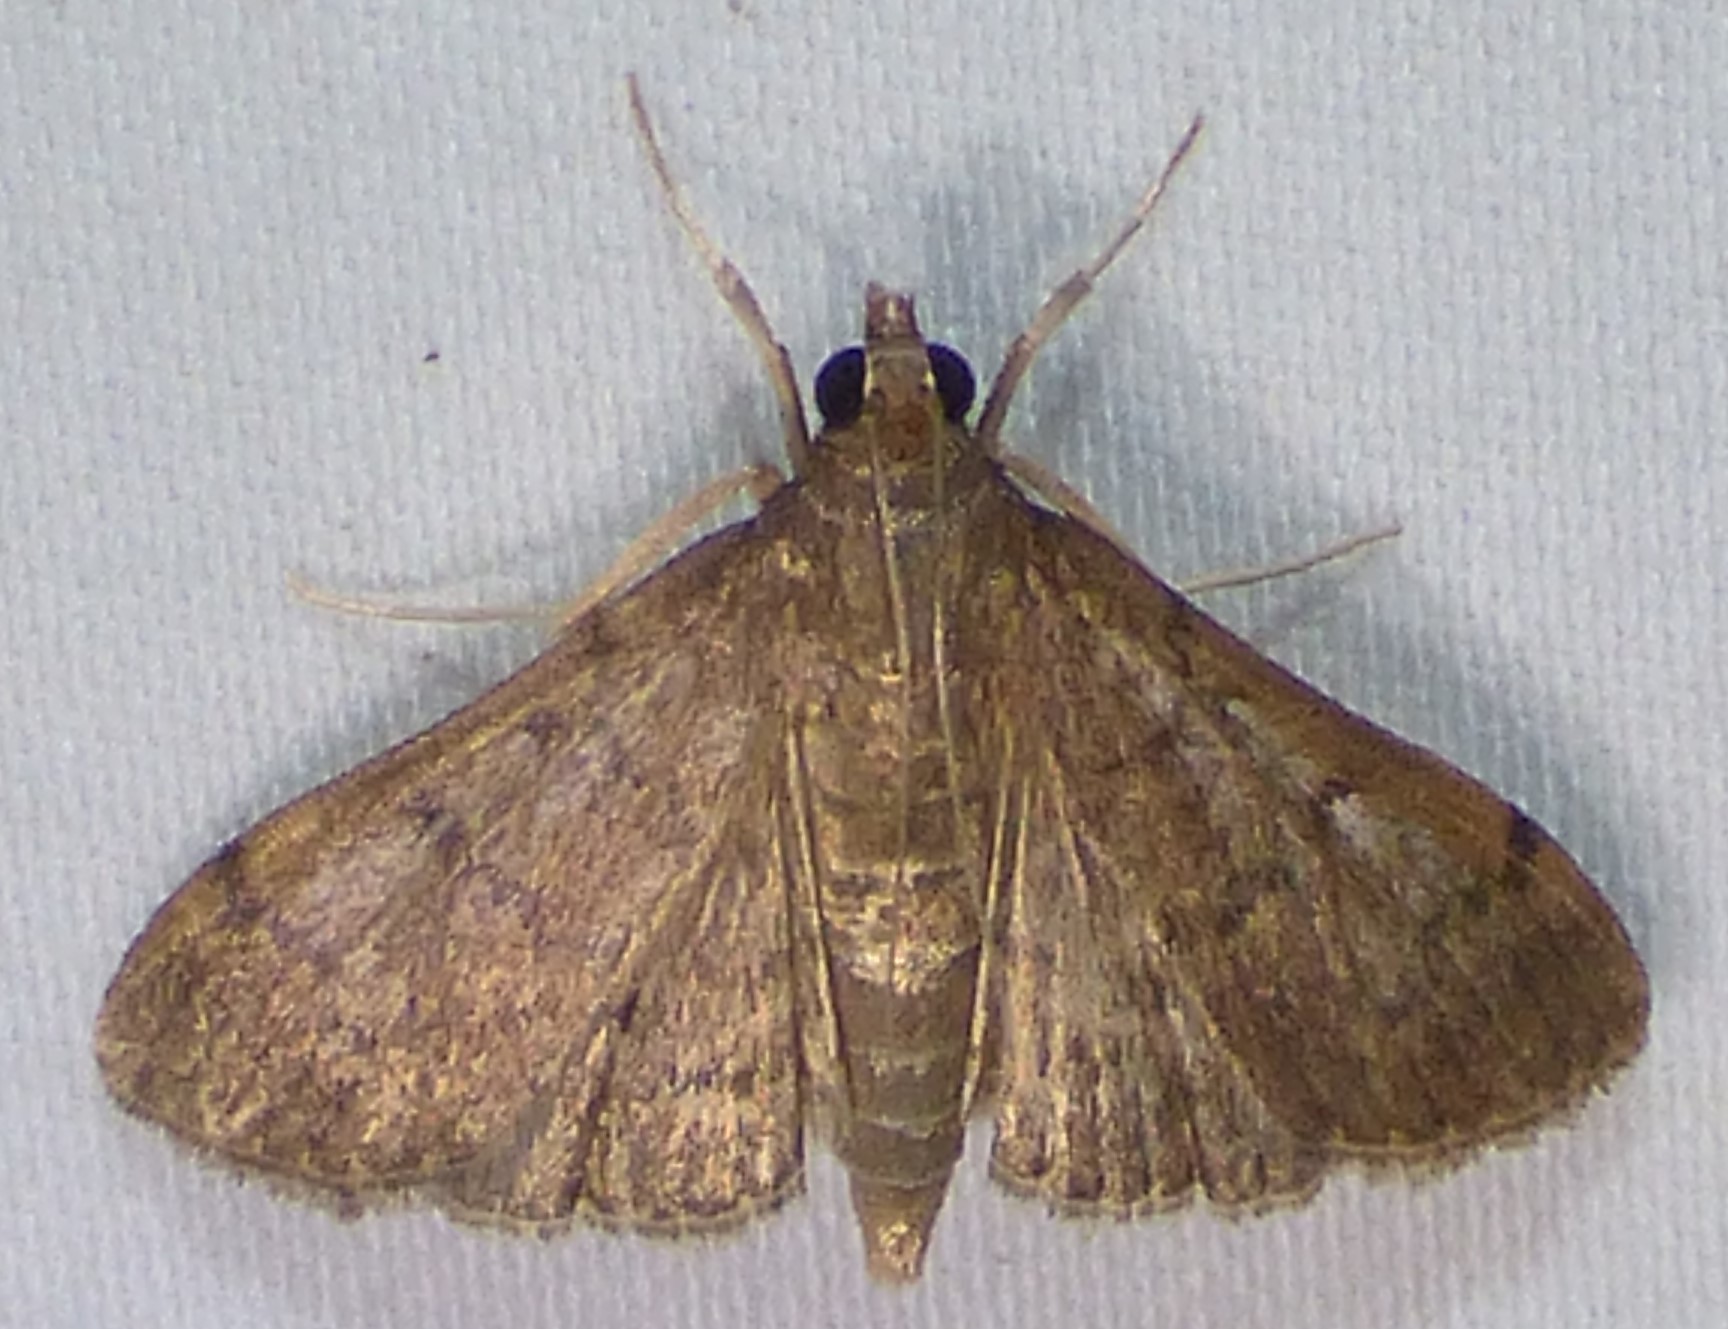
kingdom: Animalia
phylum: Arthropoda
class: Insecta
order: Lepidoptera
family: Crambidae
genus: Herpetogramma
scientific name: Herpetogramma phaeopteralis
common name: Dusky herpetogramma moth
